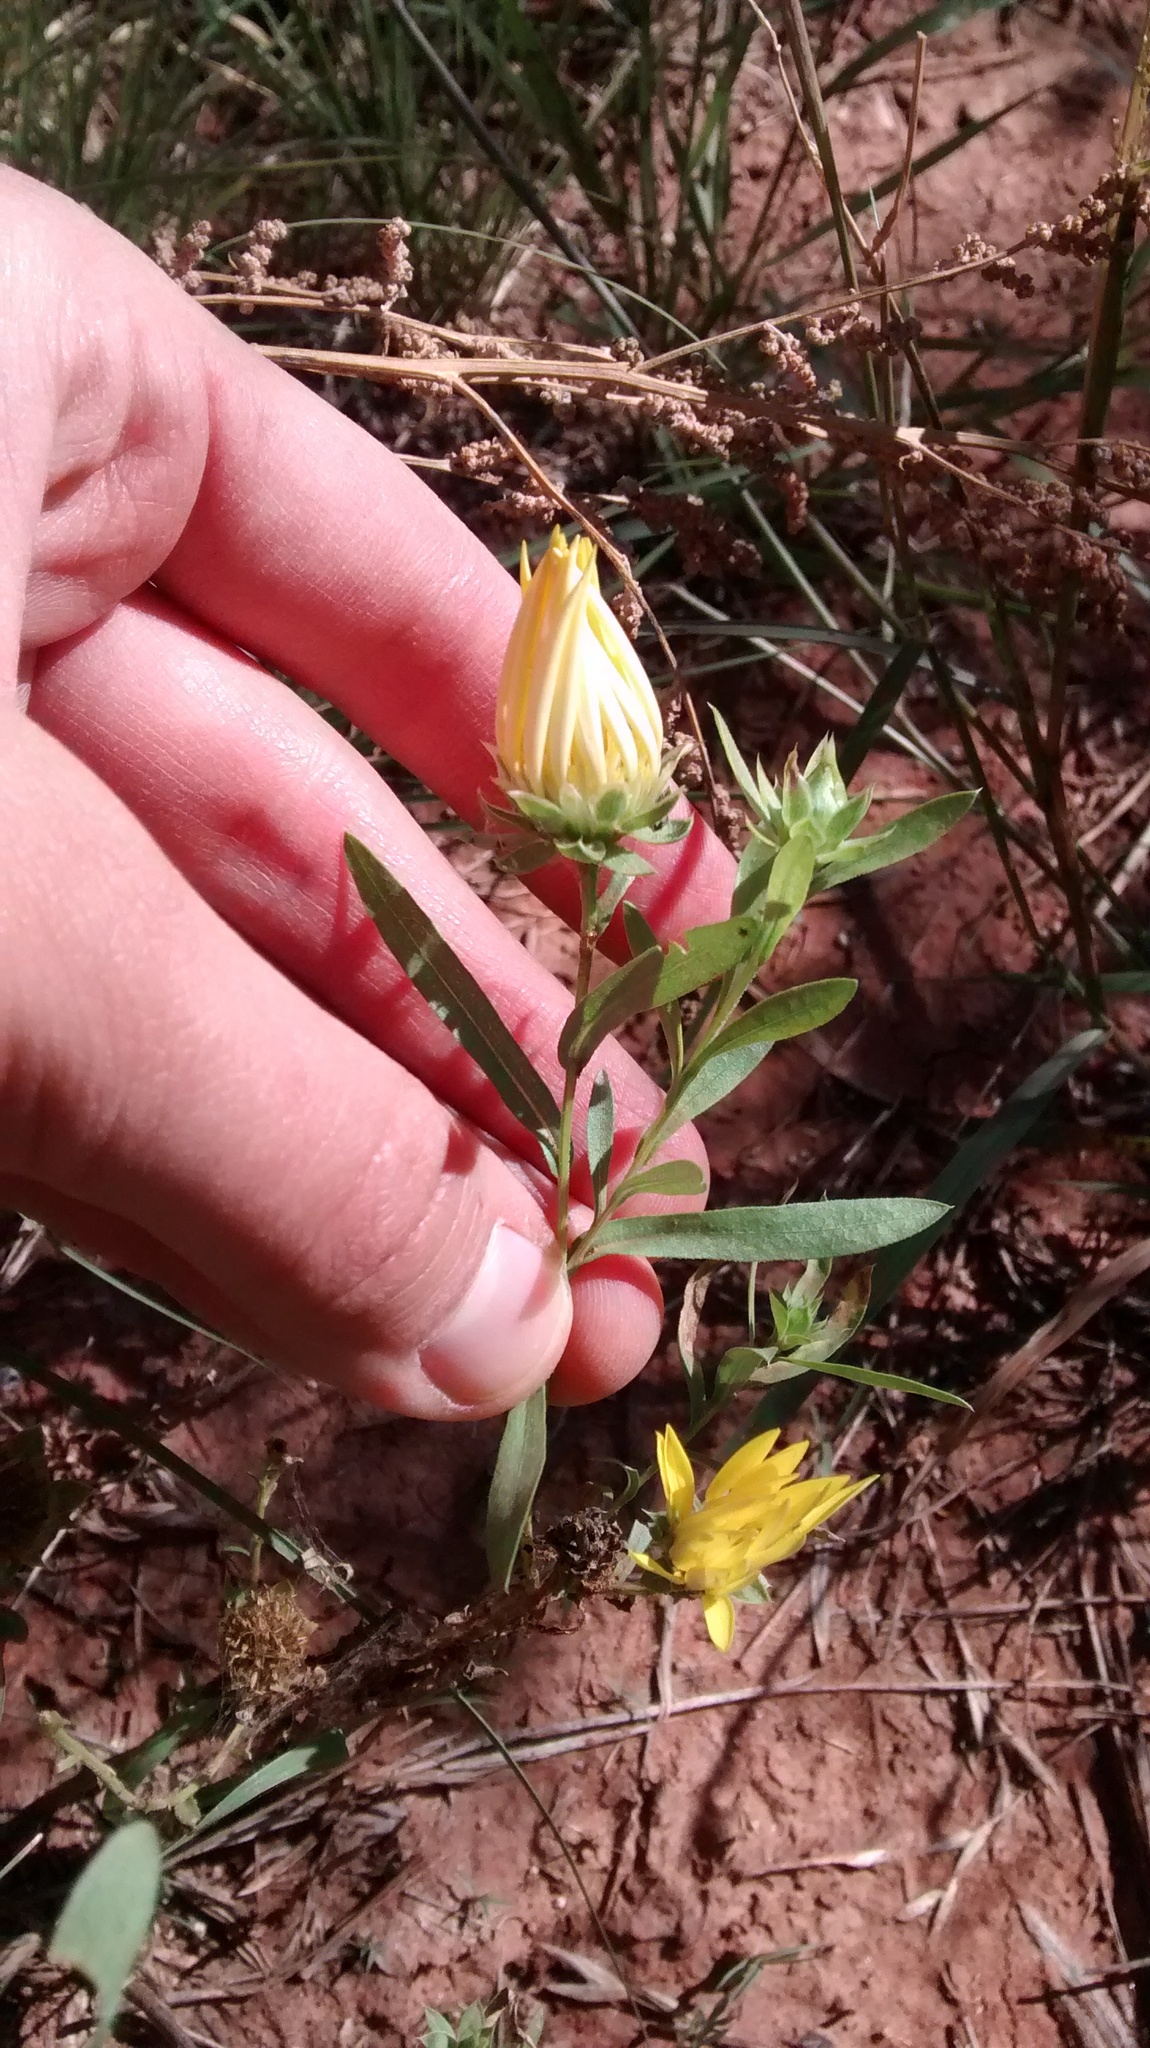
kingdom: Plantae
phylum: Tracheophyta
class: Magnoliopsida
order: Asterales
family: Asteraceae
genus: Xanthisma
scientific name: Xanthisma texanum
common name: Texas sleepy daisy
